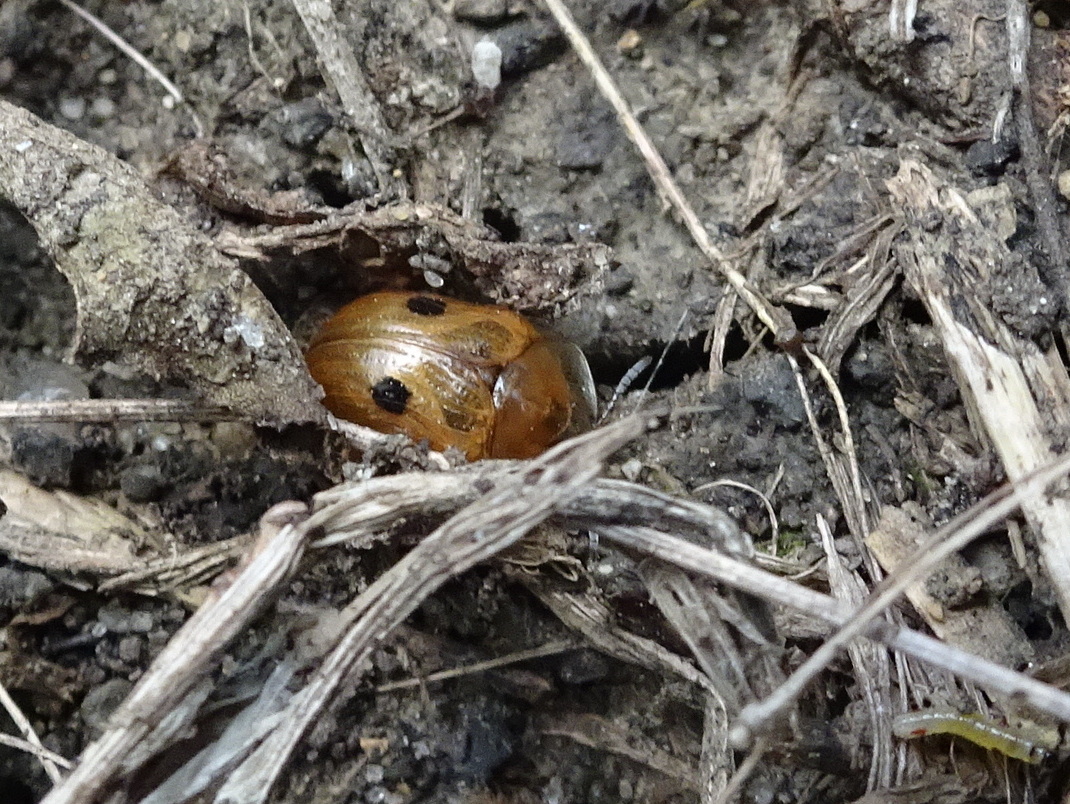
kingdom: Animalia
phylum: Arthropoda
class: Insecta
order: Coleoptera
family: Chrysomelidae
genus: Strongylocassis
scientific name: Strongylocassis atripes
